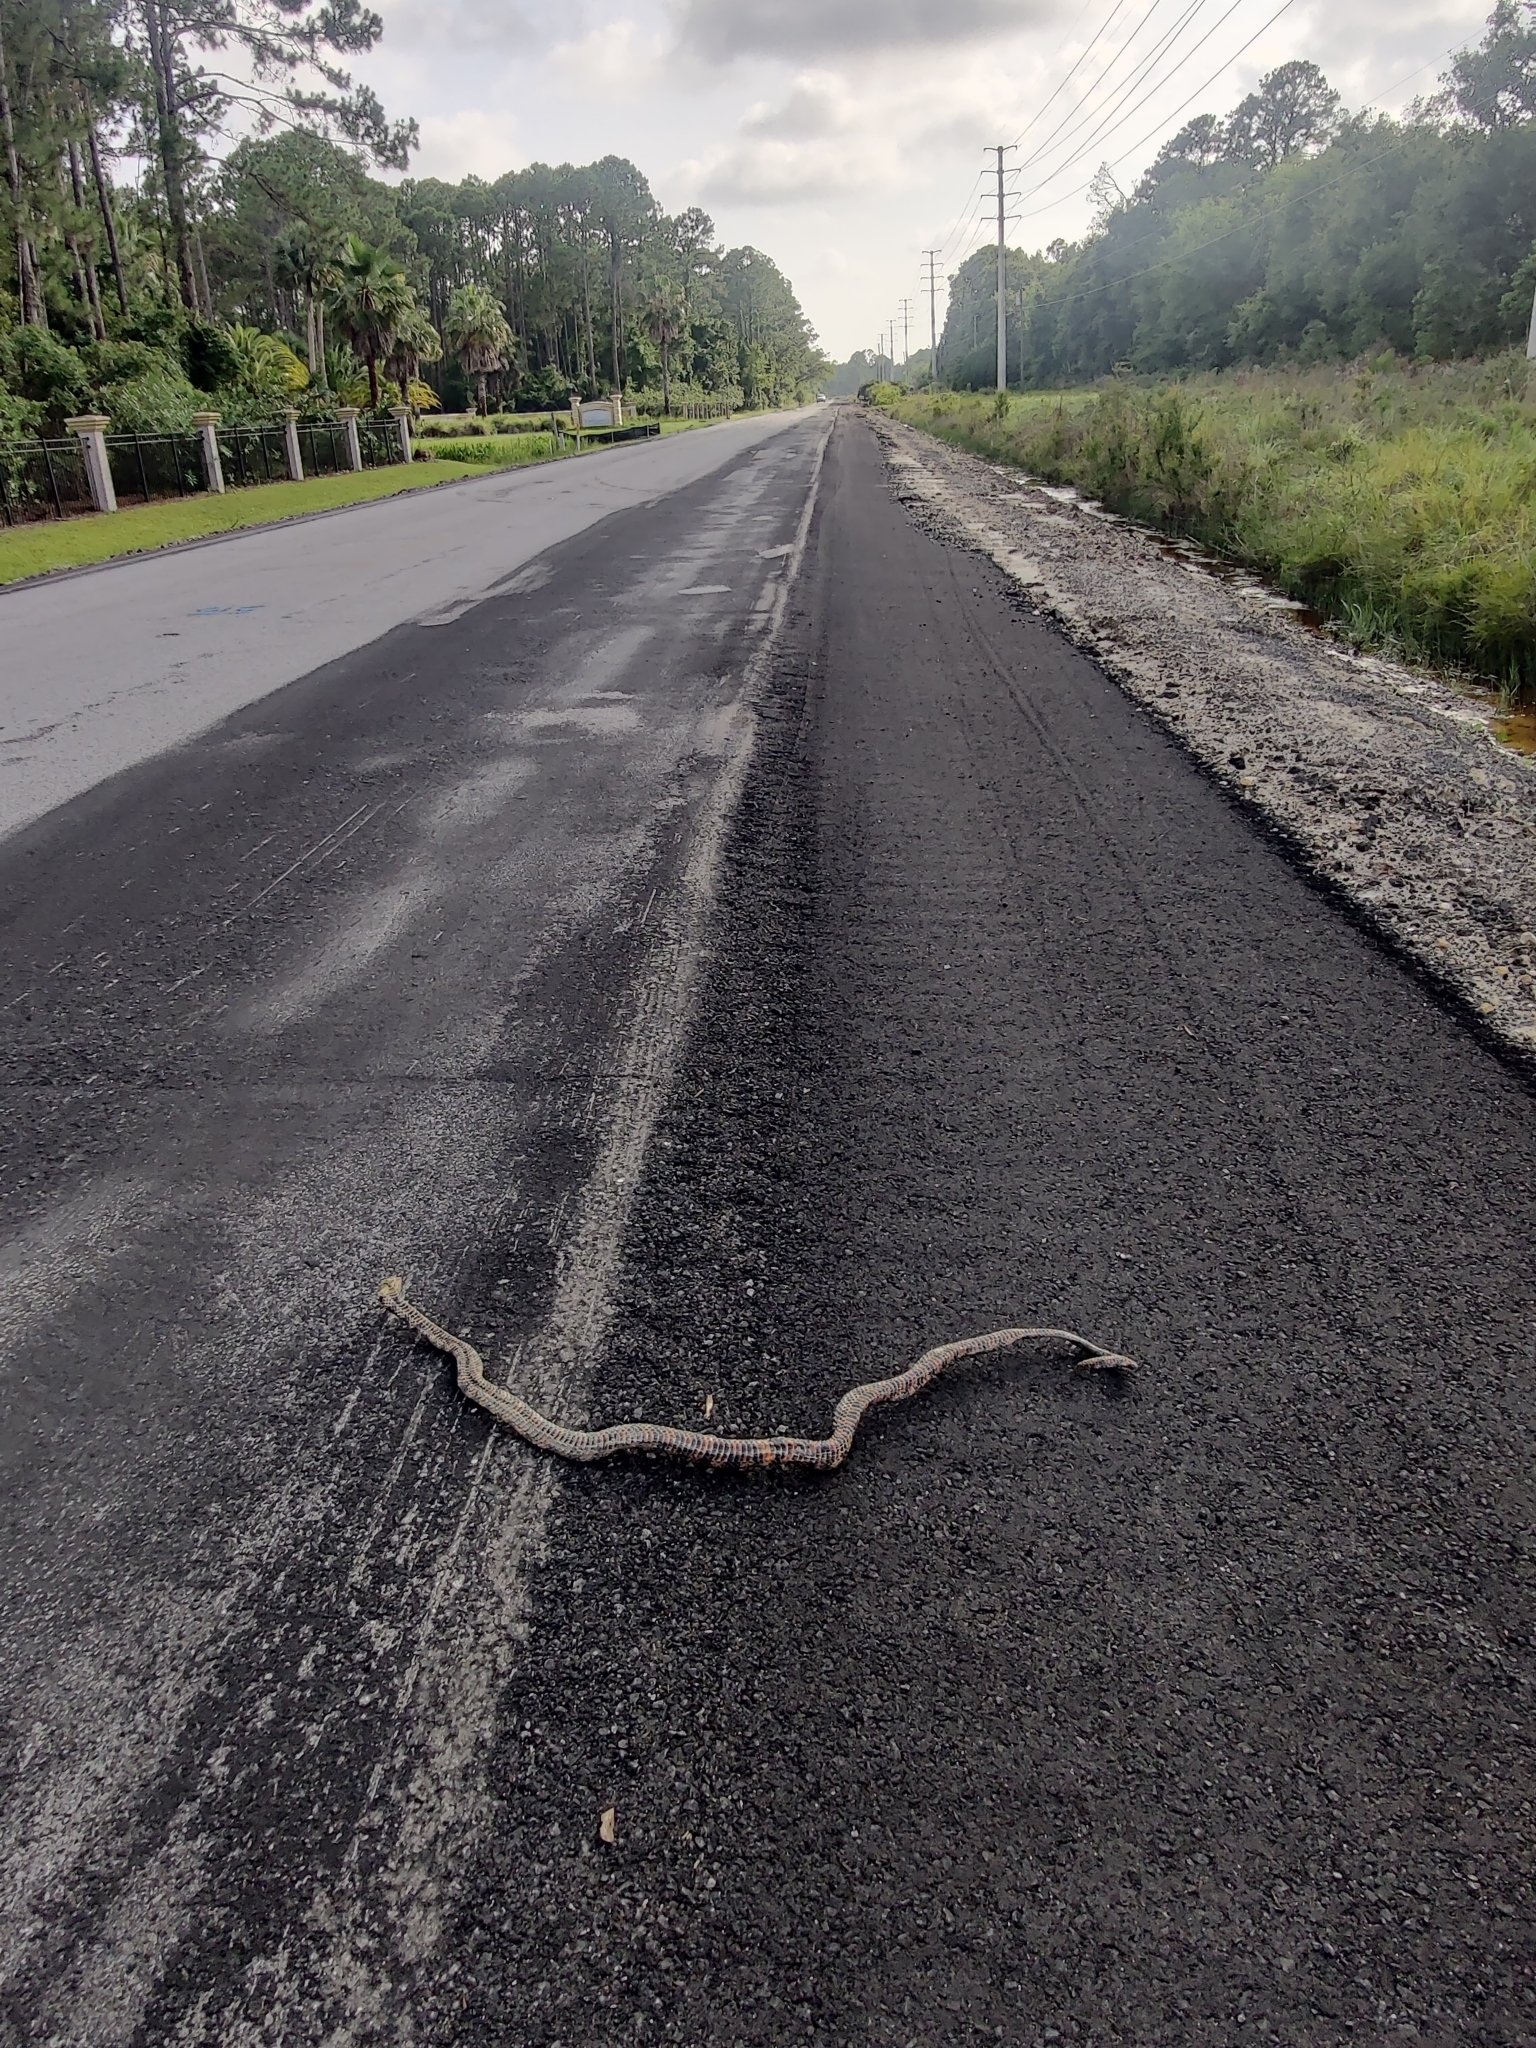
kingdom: Animalia
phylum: Chordata
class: Squamata
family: Colubridae
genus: Farancia
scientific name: Farancia abacura
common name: Mud snake
